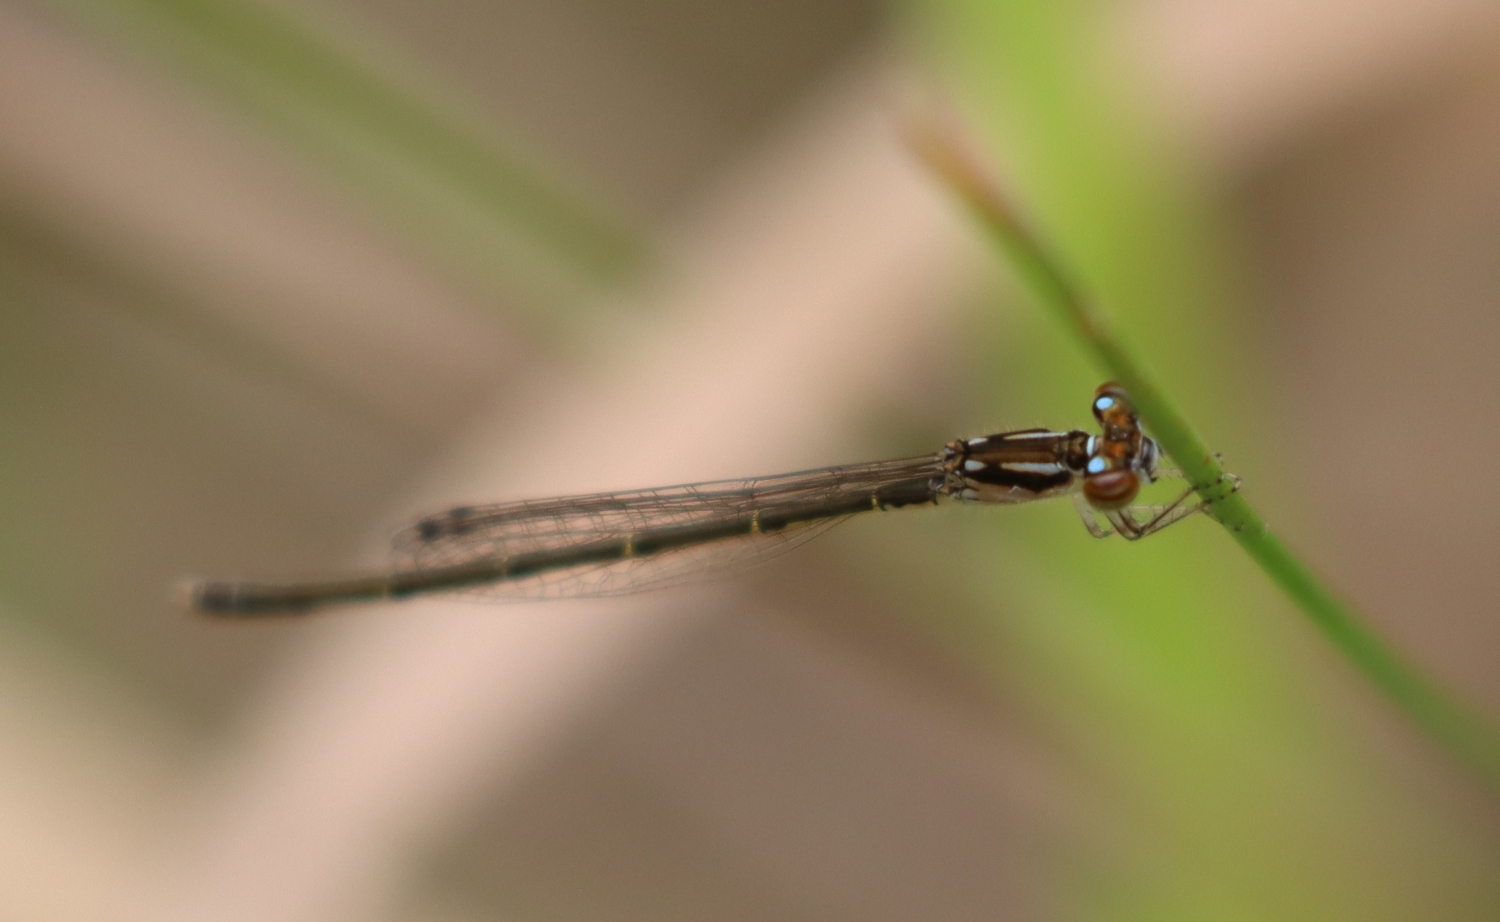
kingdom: Animalia
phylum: Arthropoda
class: Insecta
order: Odonata
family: Coenagrionidae
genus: Ischnura
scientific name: Ischnura posita
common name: Fragile forktail
